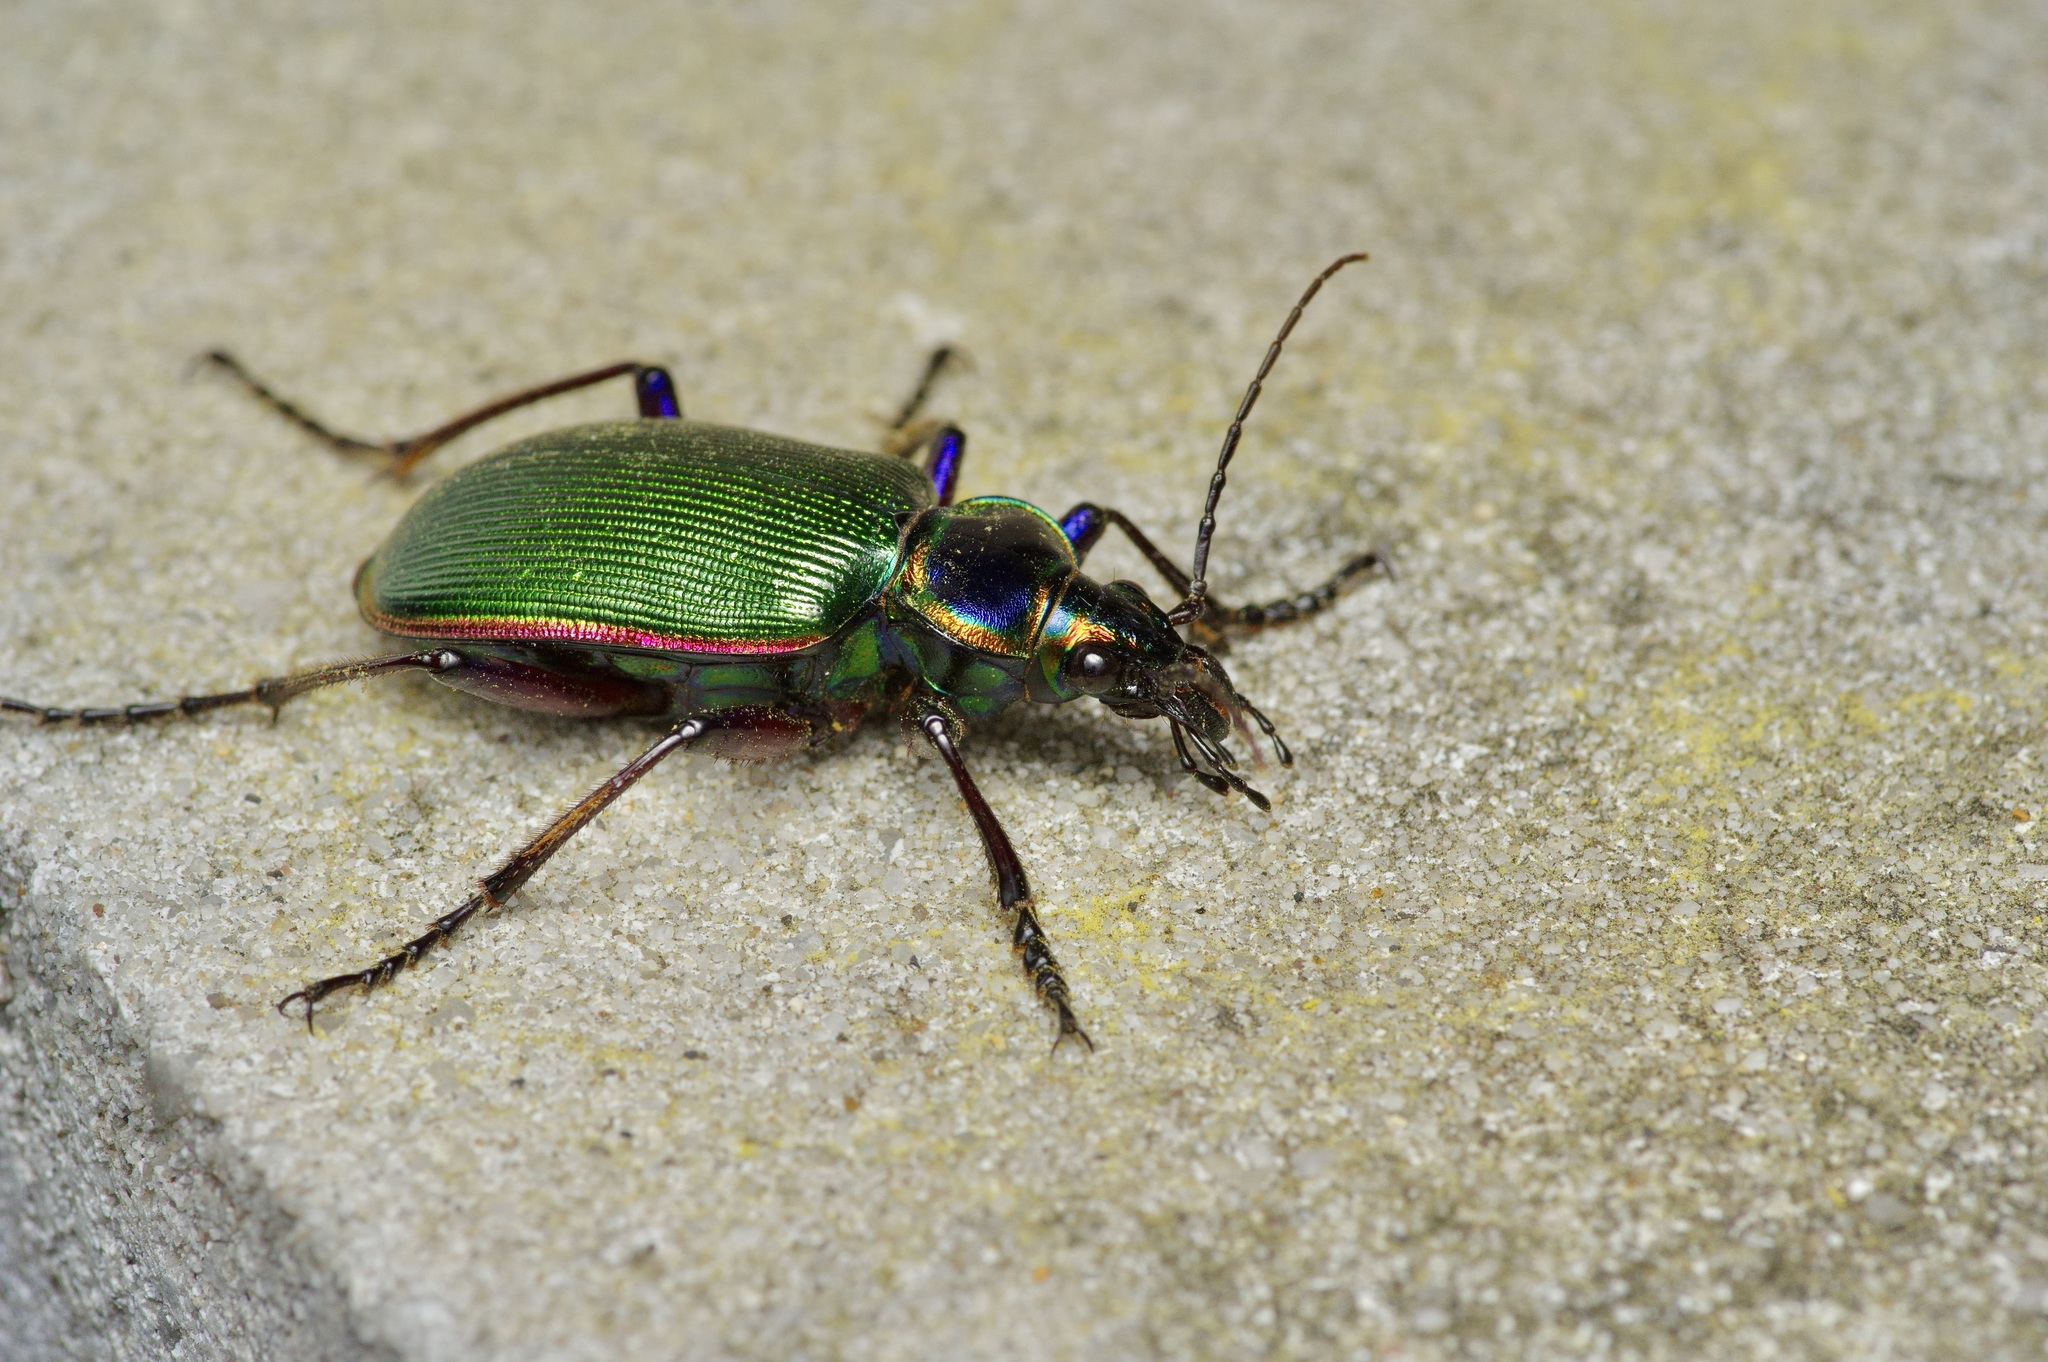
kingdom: Animalia
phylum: Arthropoda
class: Insecta
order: Coleoptera
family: Carabidae
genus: Calosoma
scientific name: Calosoma scrutator
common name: Fiery searcher beetle
